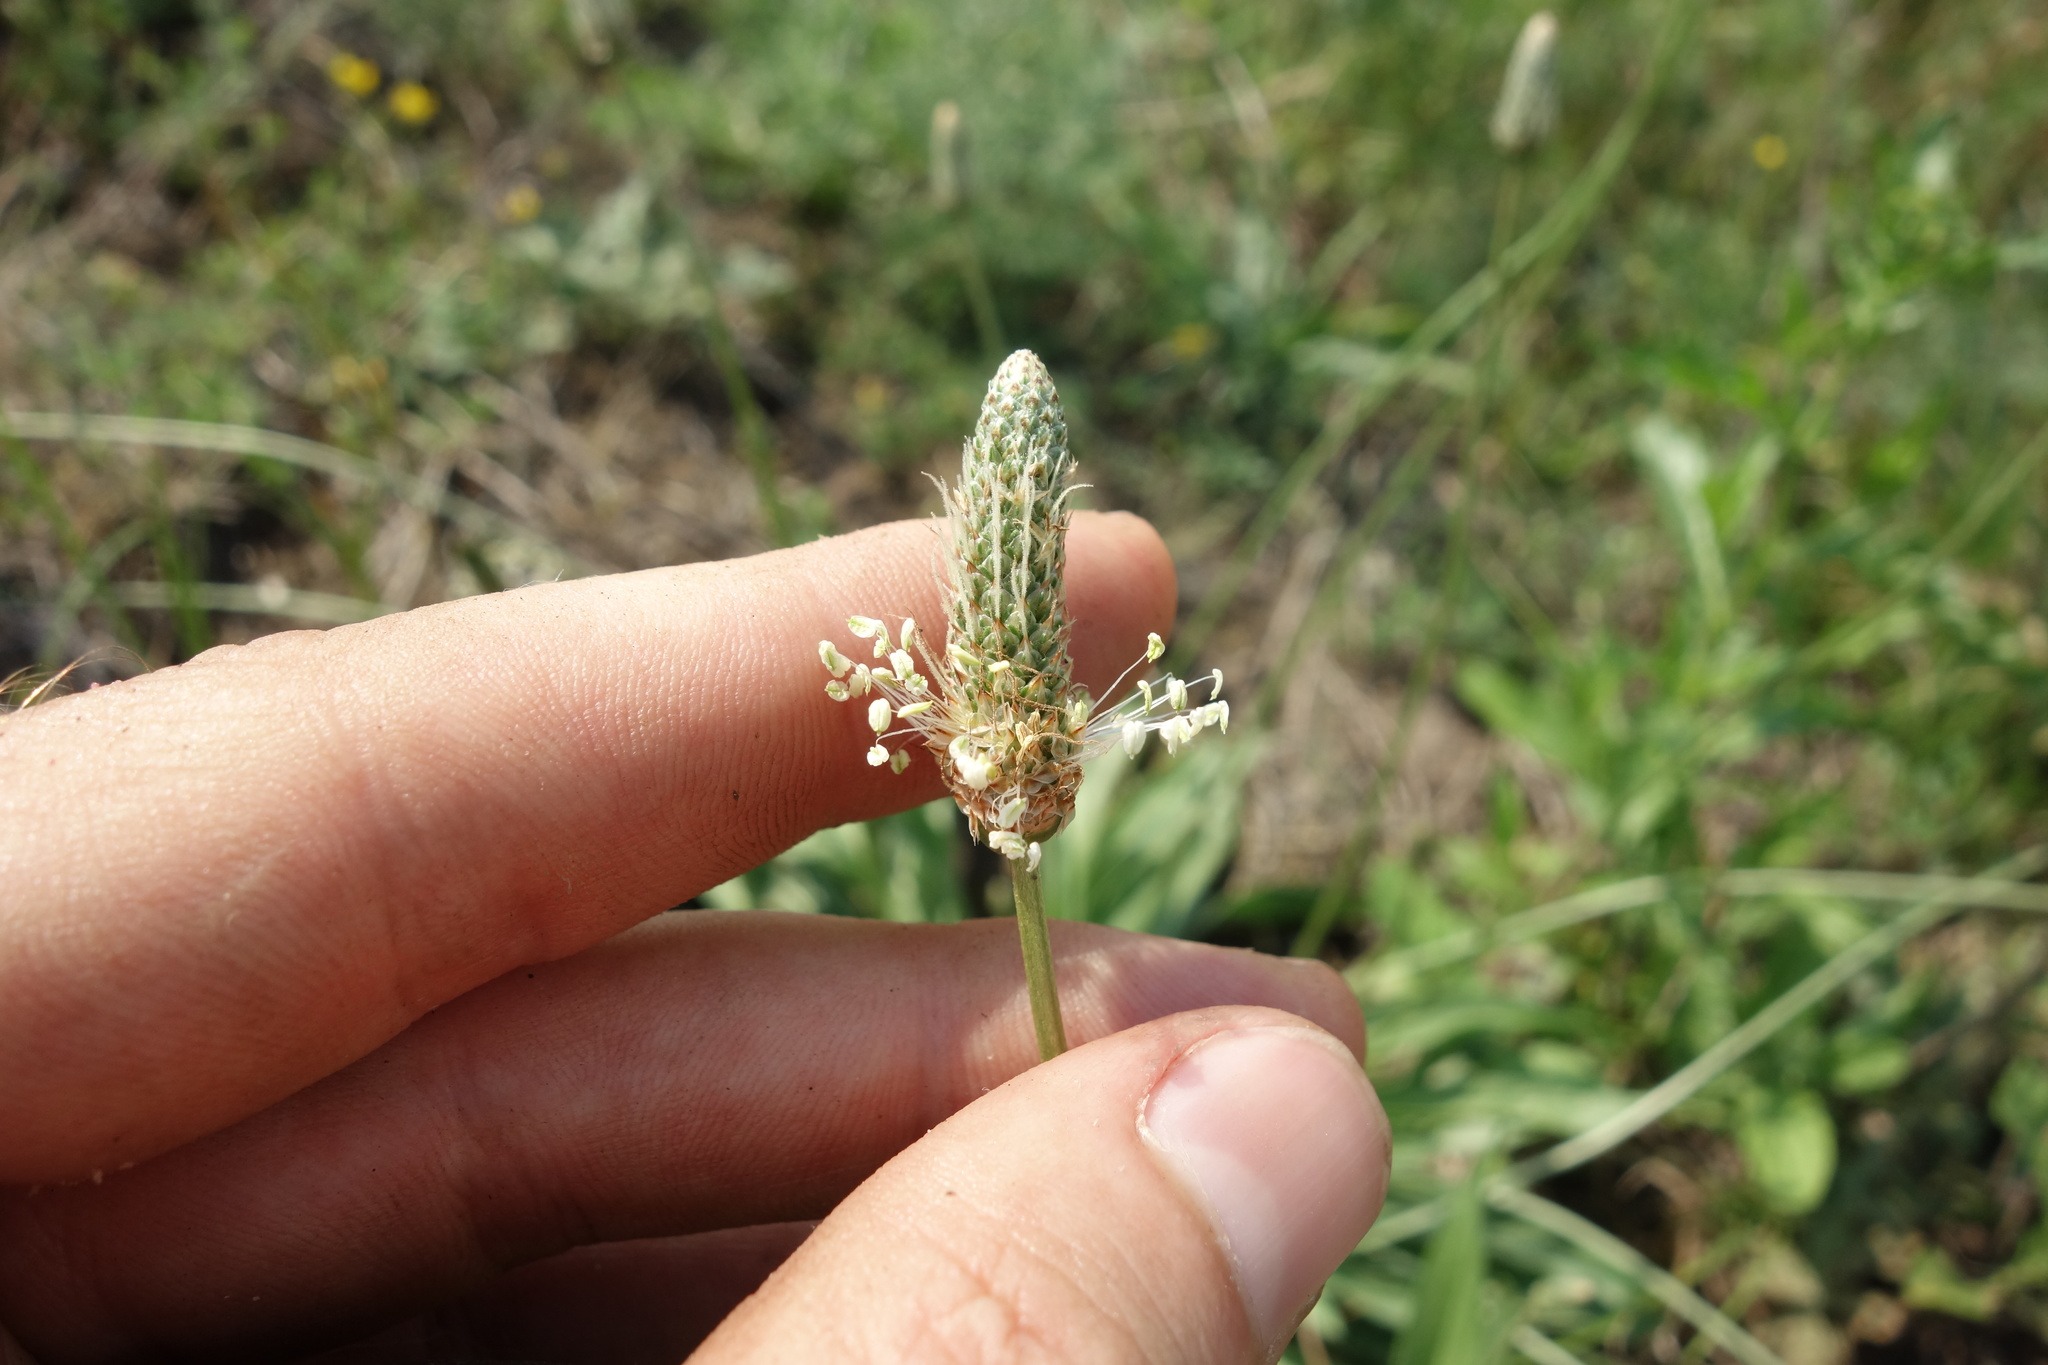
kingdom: Plantae
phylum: Tracheophyta
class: Magnoliopsida
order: Lamiales
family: Plantaginaceae
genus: Plantago
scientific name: Plantago lanceolata
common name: Ribwort plantain
